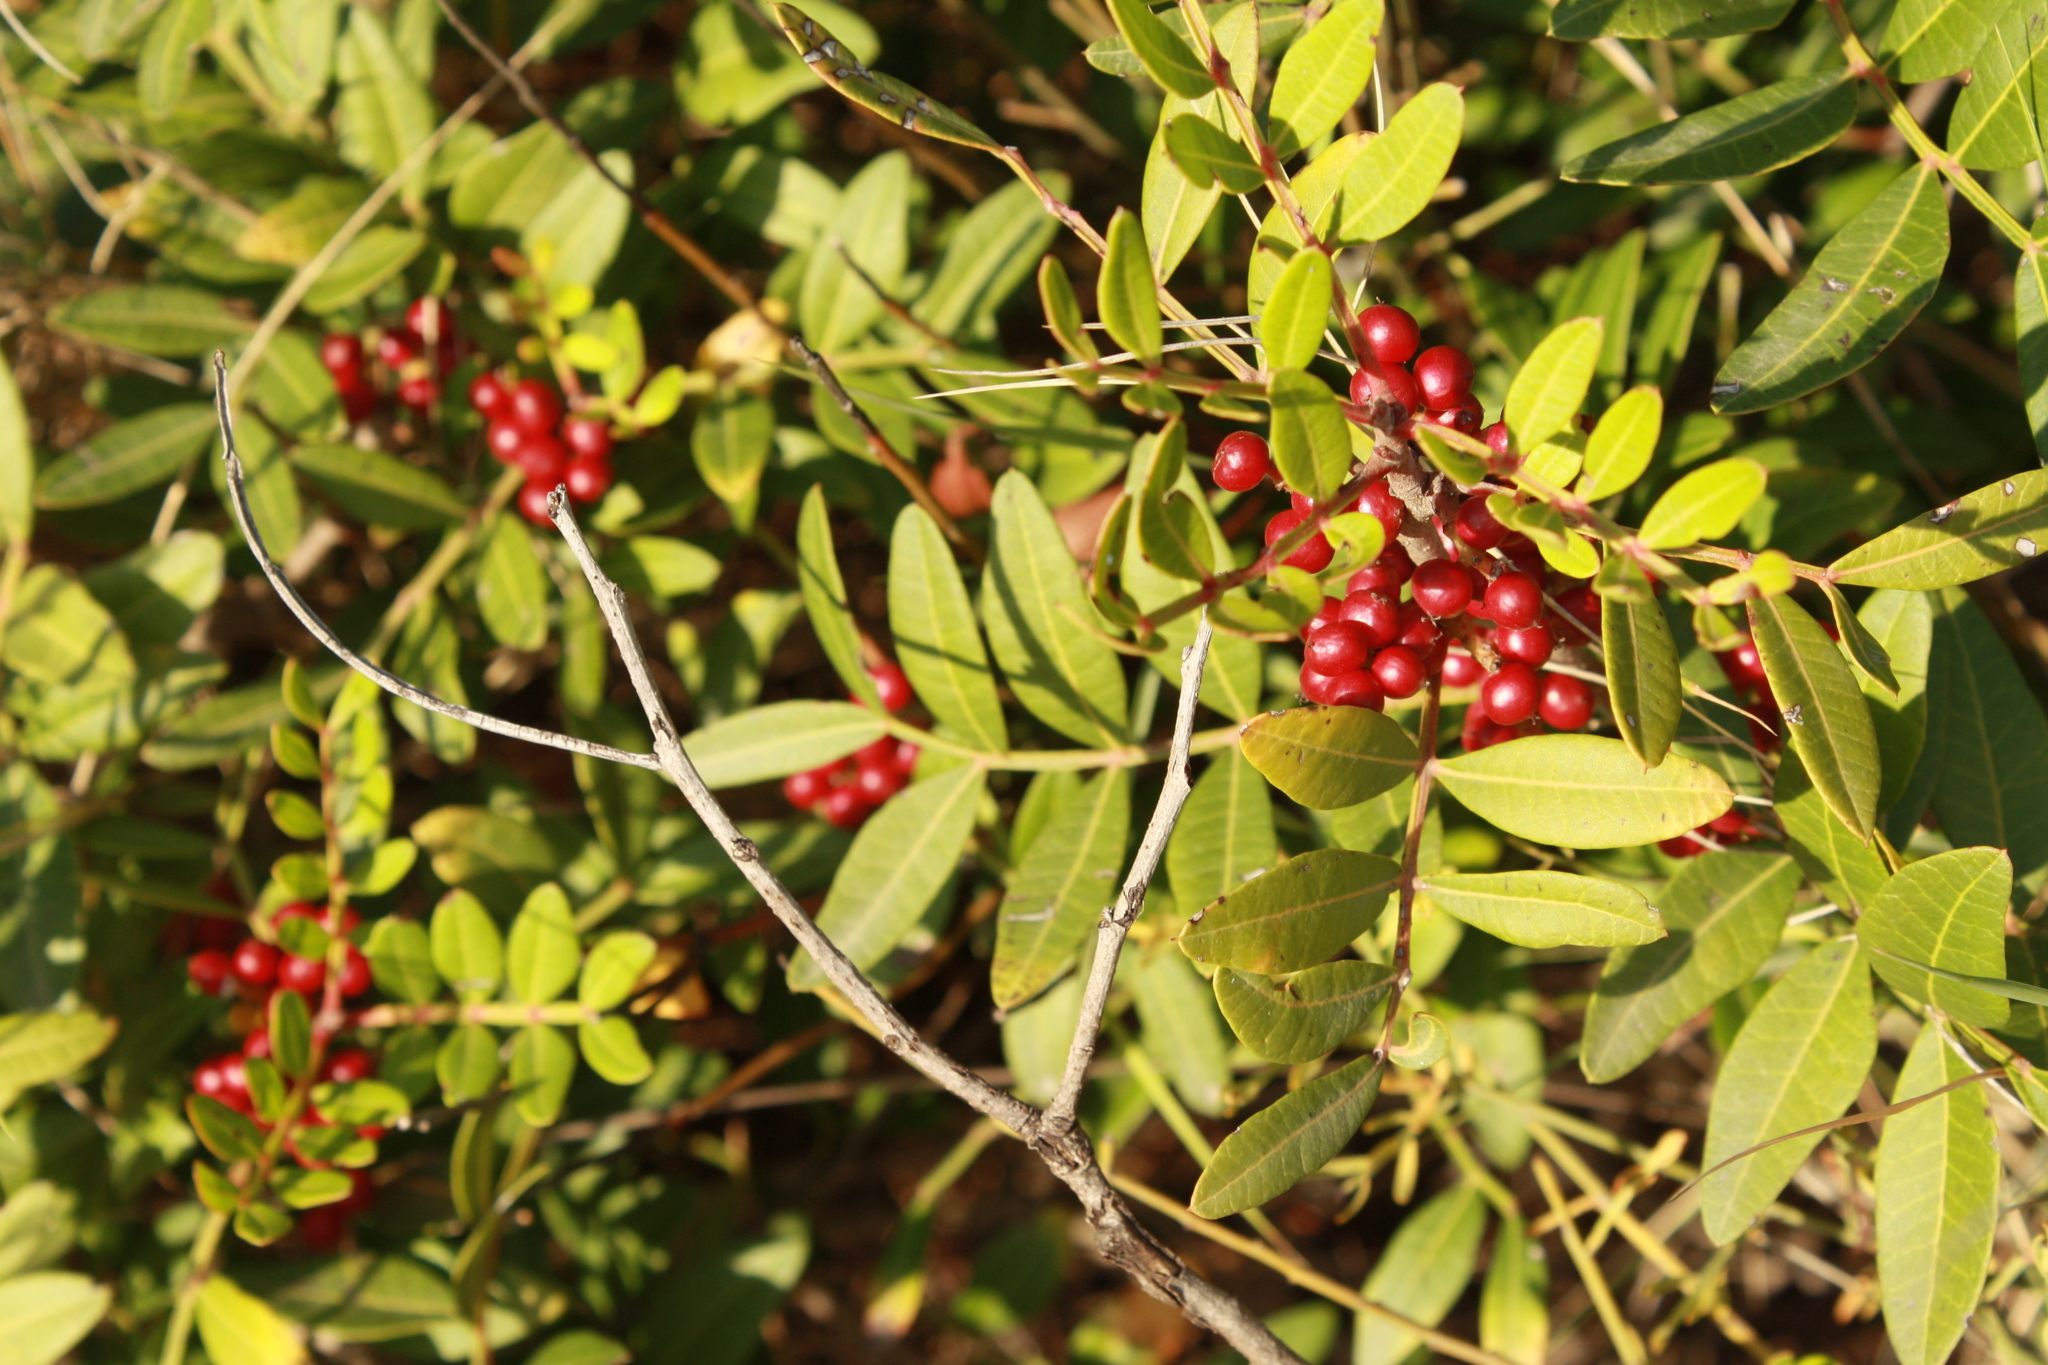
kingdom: Plantae
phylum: Tracheophyta
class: Magnoliopsida
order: Sapindales
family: Anacardiaceae
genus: Pistacia
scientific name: Pistacia lentiscus
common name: Lentisk
